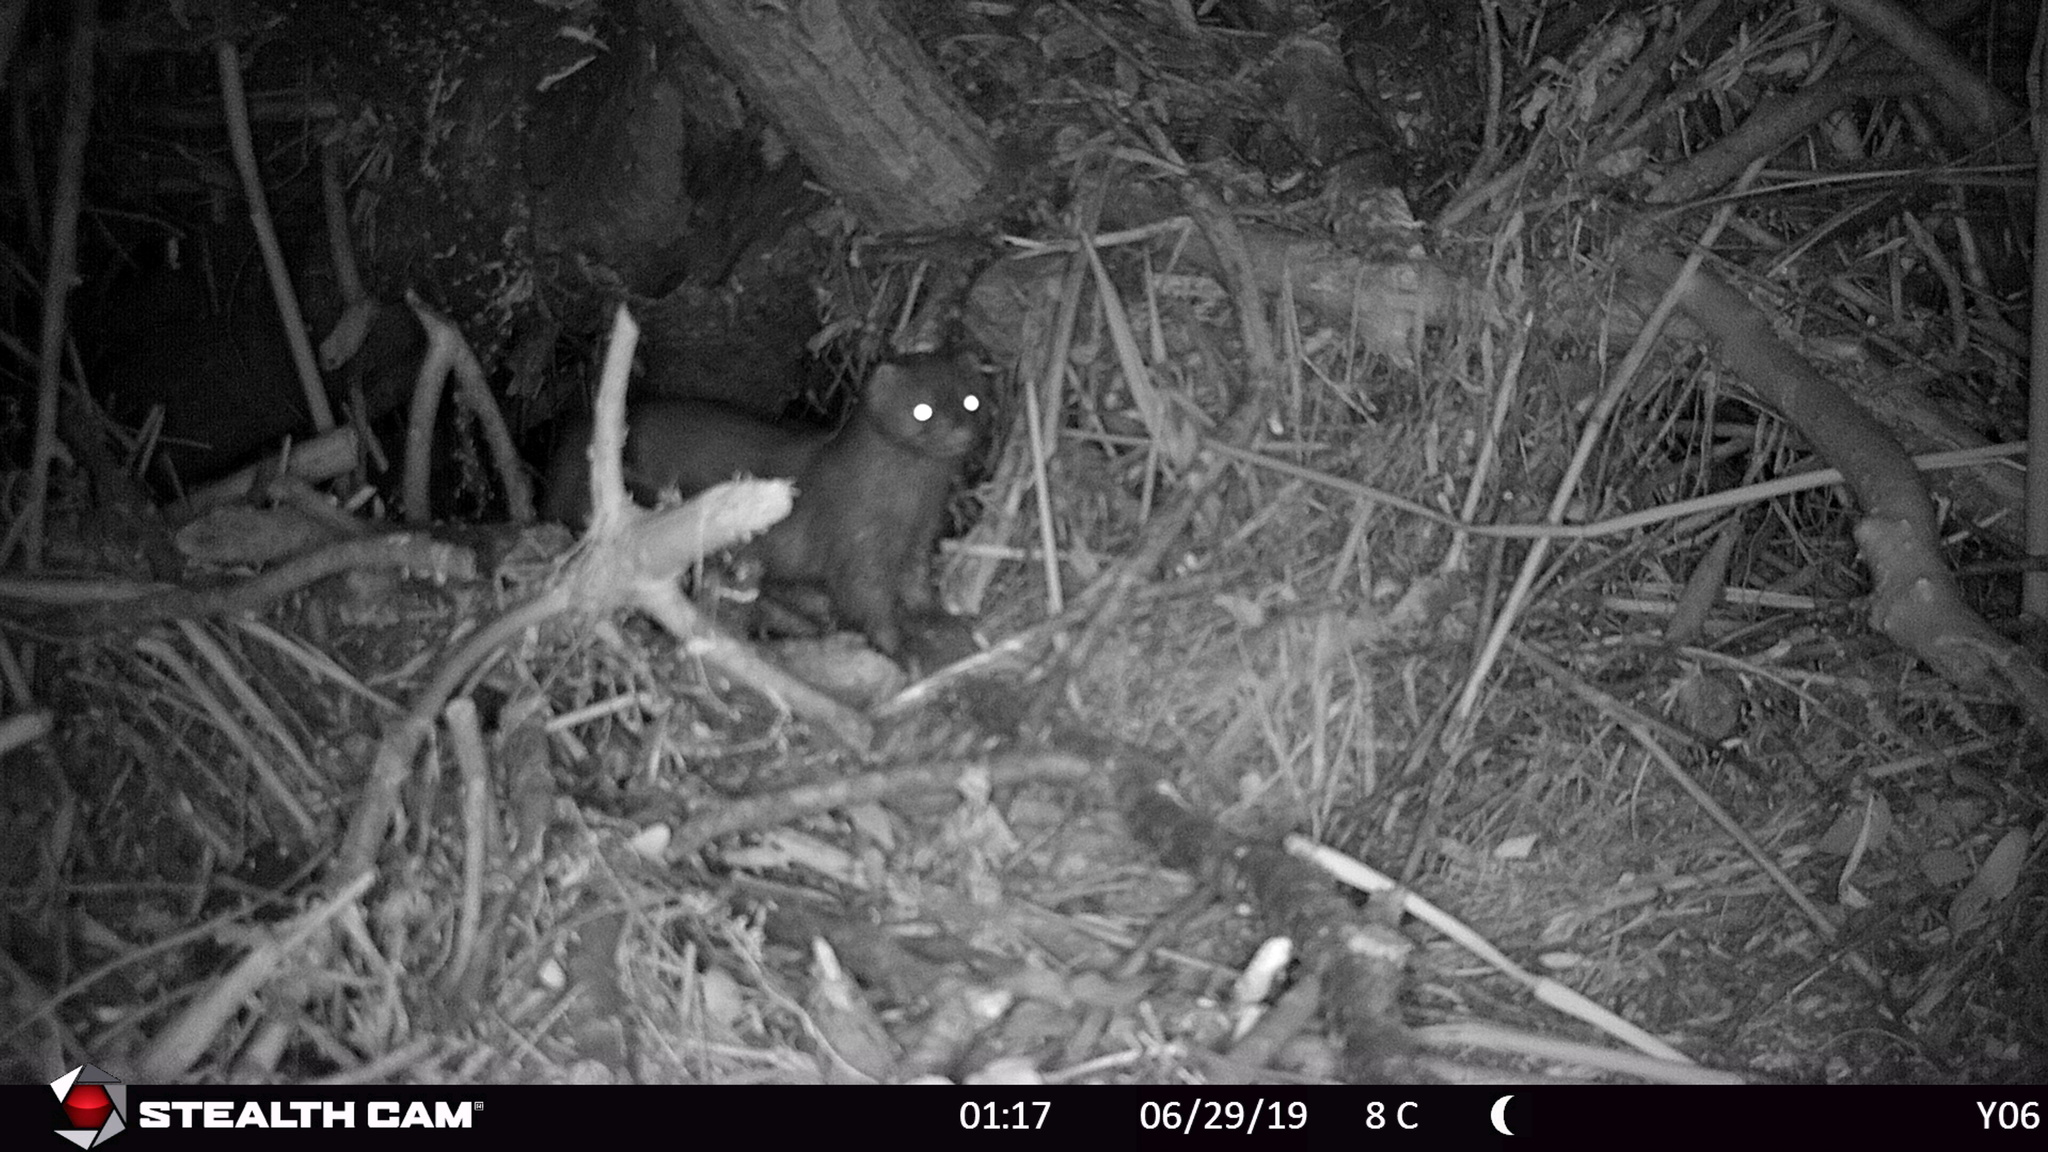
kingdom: Animalia
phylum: Chordata
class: Mammalia
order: Carnivora
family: Mustelidae
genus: Mustela
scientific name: Mustela
